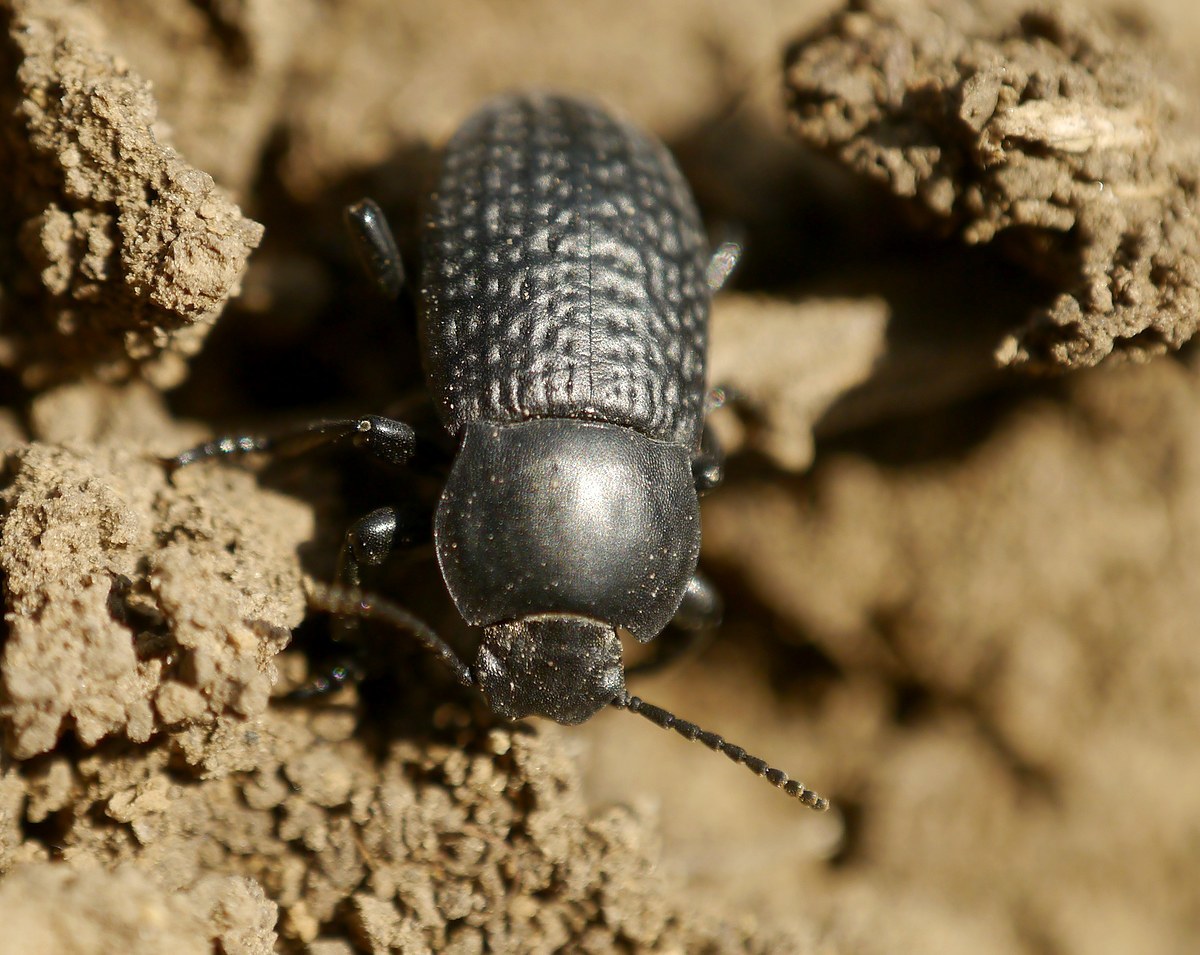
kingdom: Animalia
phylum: Arthropoda
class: Insecta
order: Coleoptera
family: Tenebrionidae
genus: Dendarus
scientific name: Dendarus punctatus
